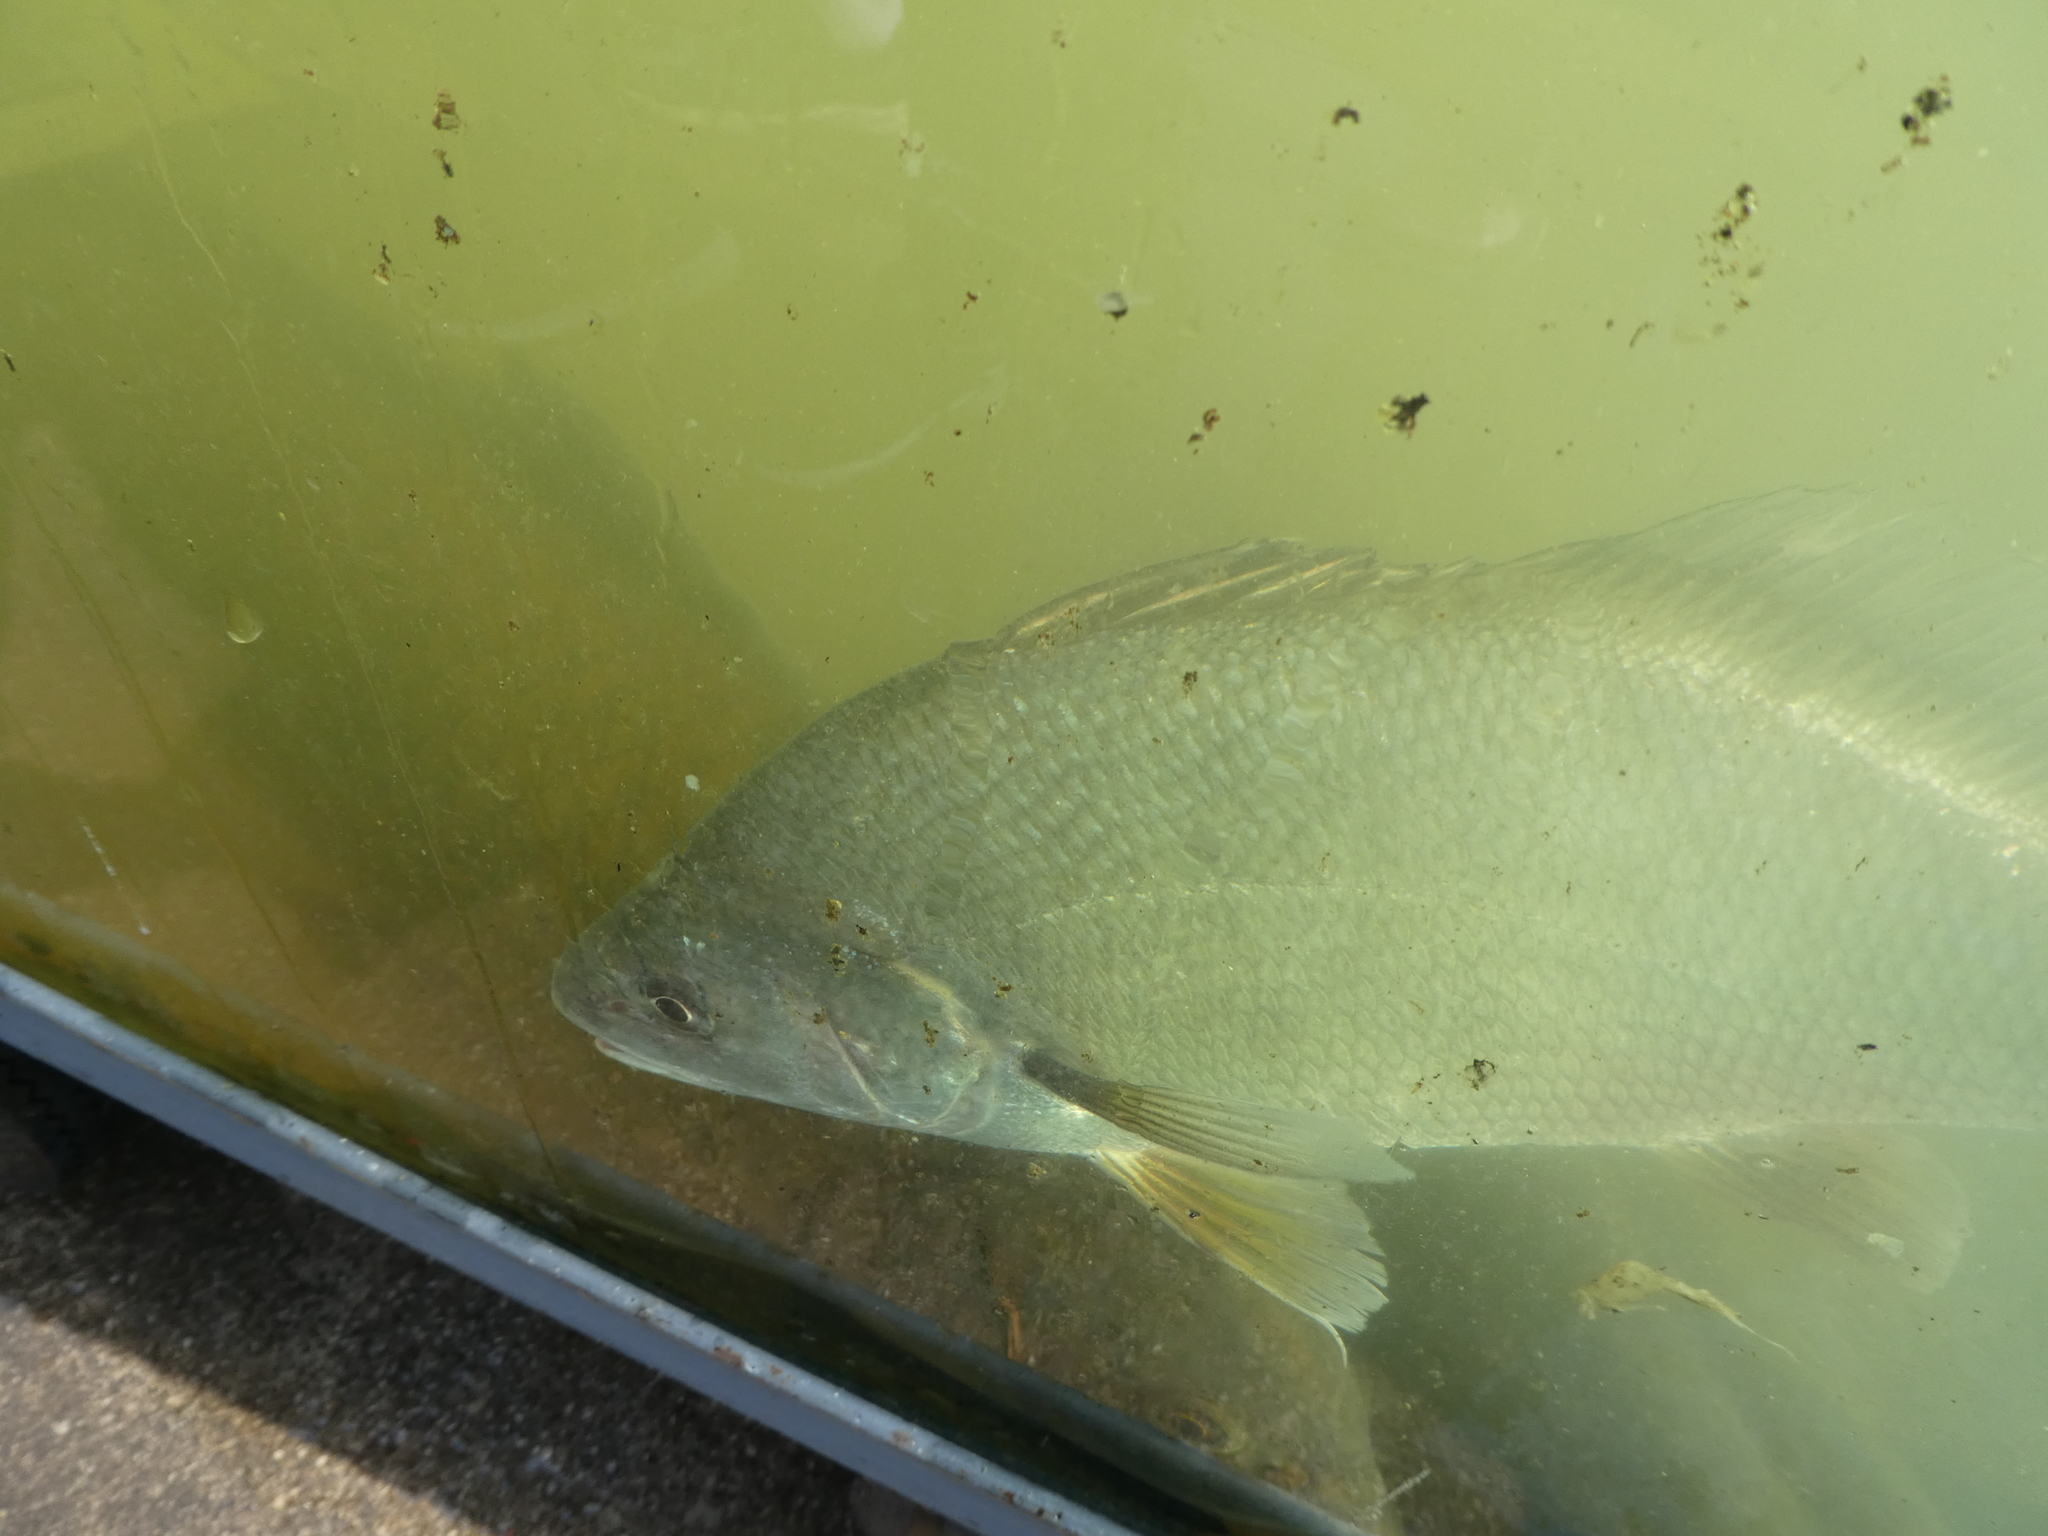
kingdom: Animalia
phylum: Chordata
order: Perciformes
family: Sciaenidae
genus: Aplodinotus
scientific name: Aplodinotus grunniens
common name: Freshwater drum
